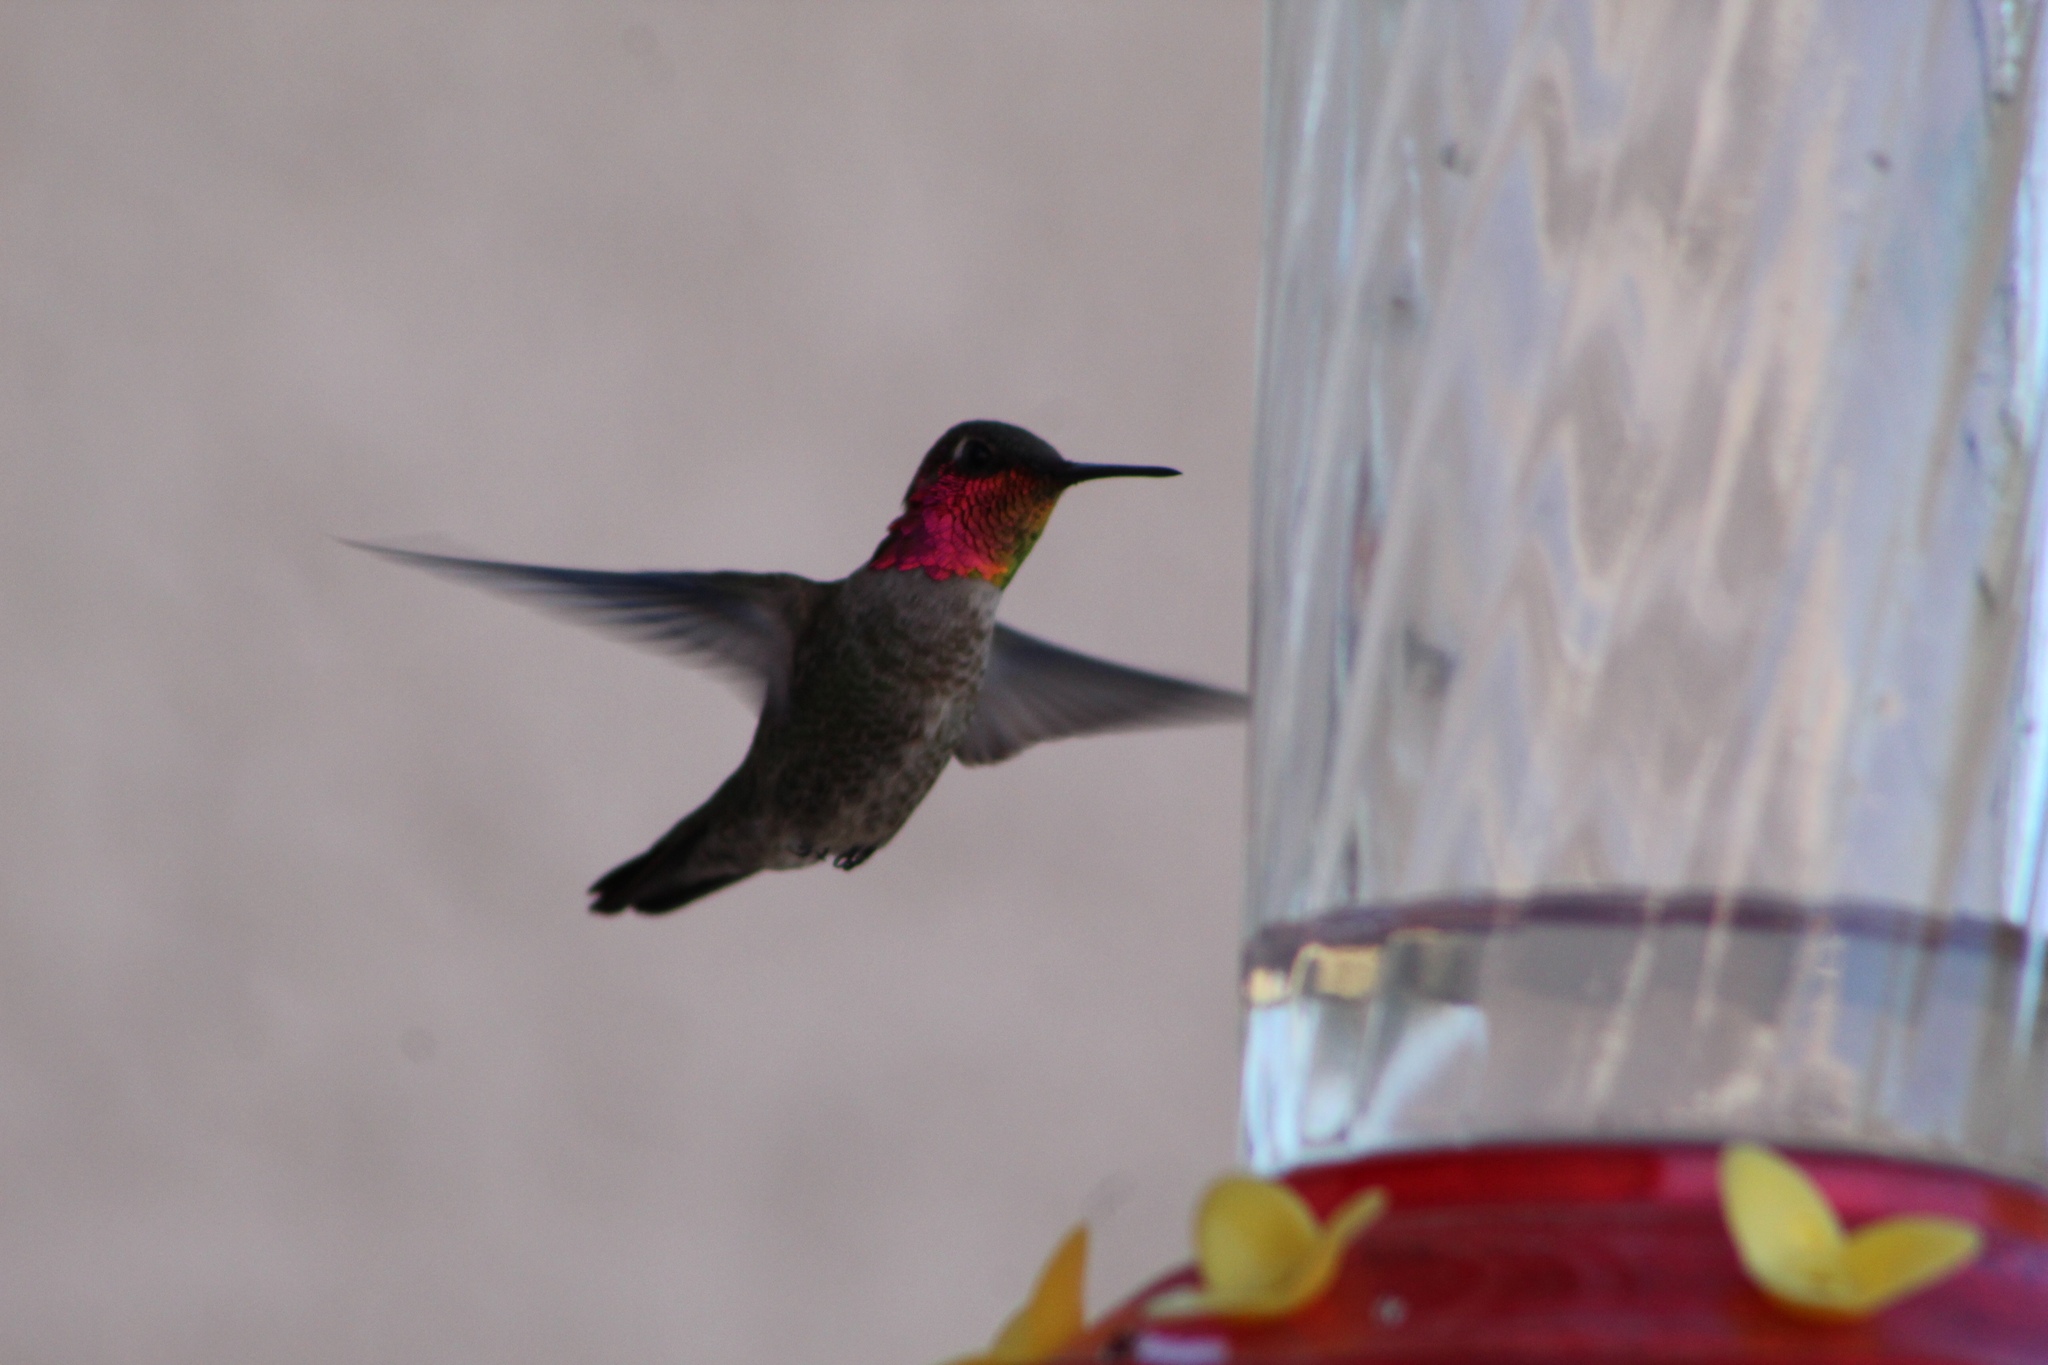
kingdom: Animalia
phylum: Chordata
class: Aves
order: Apodiformes
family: Trochilidae
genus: Calypte
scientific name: Calypte anna
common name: Anna's hummingbird
